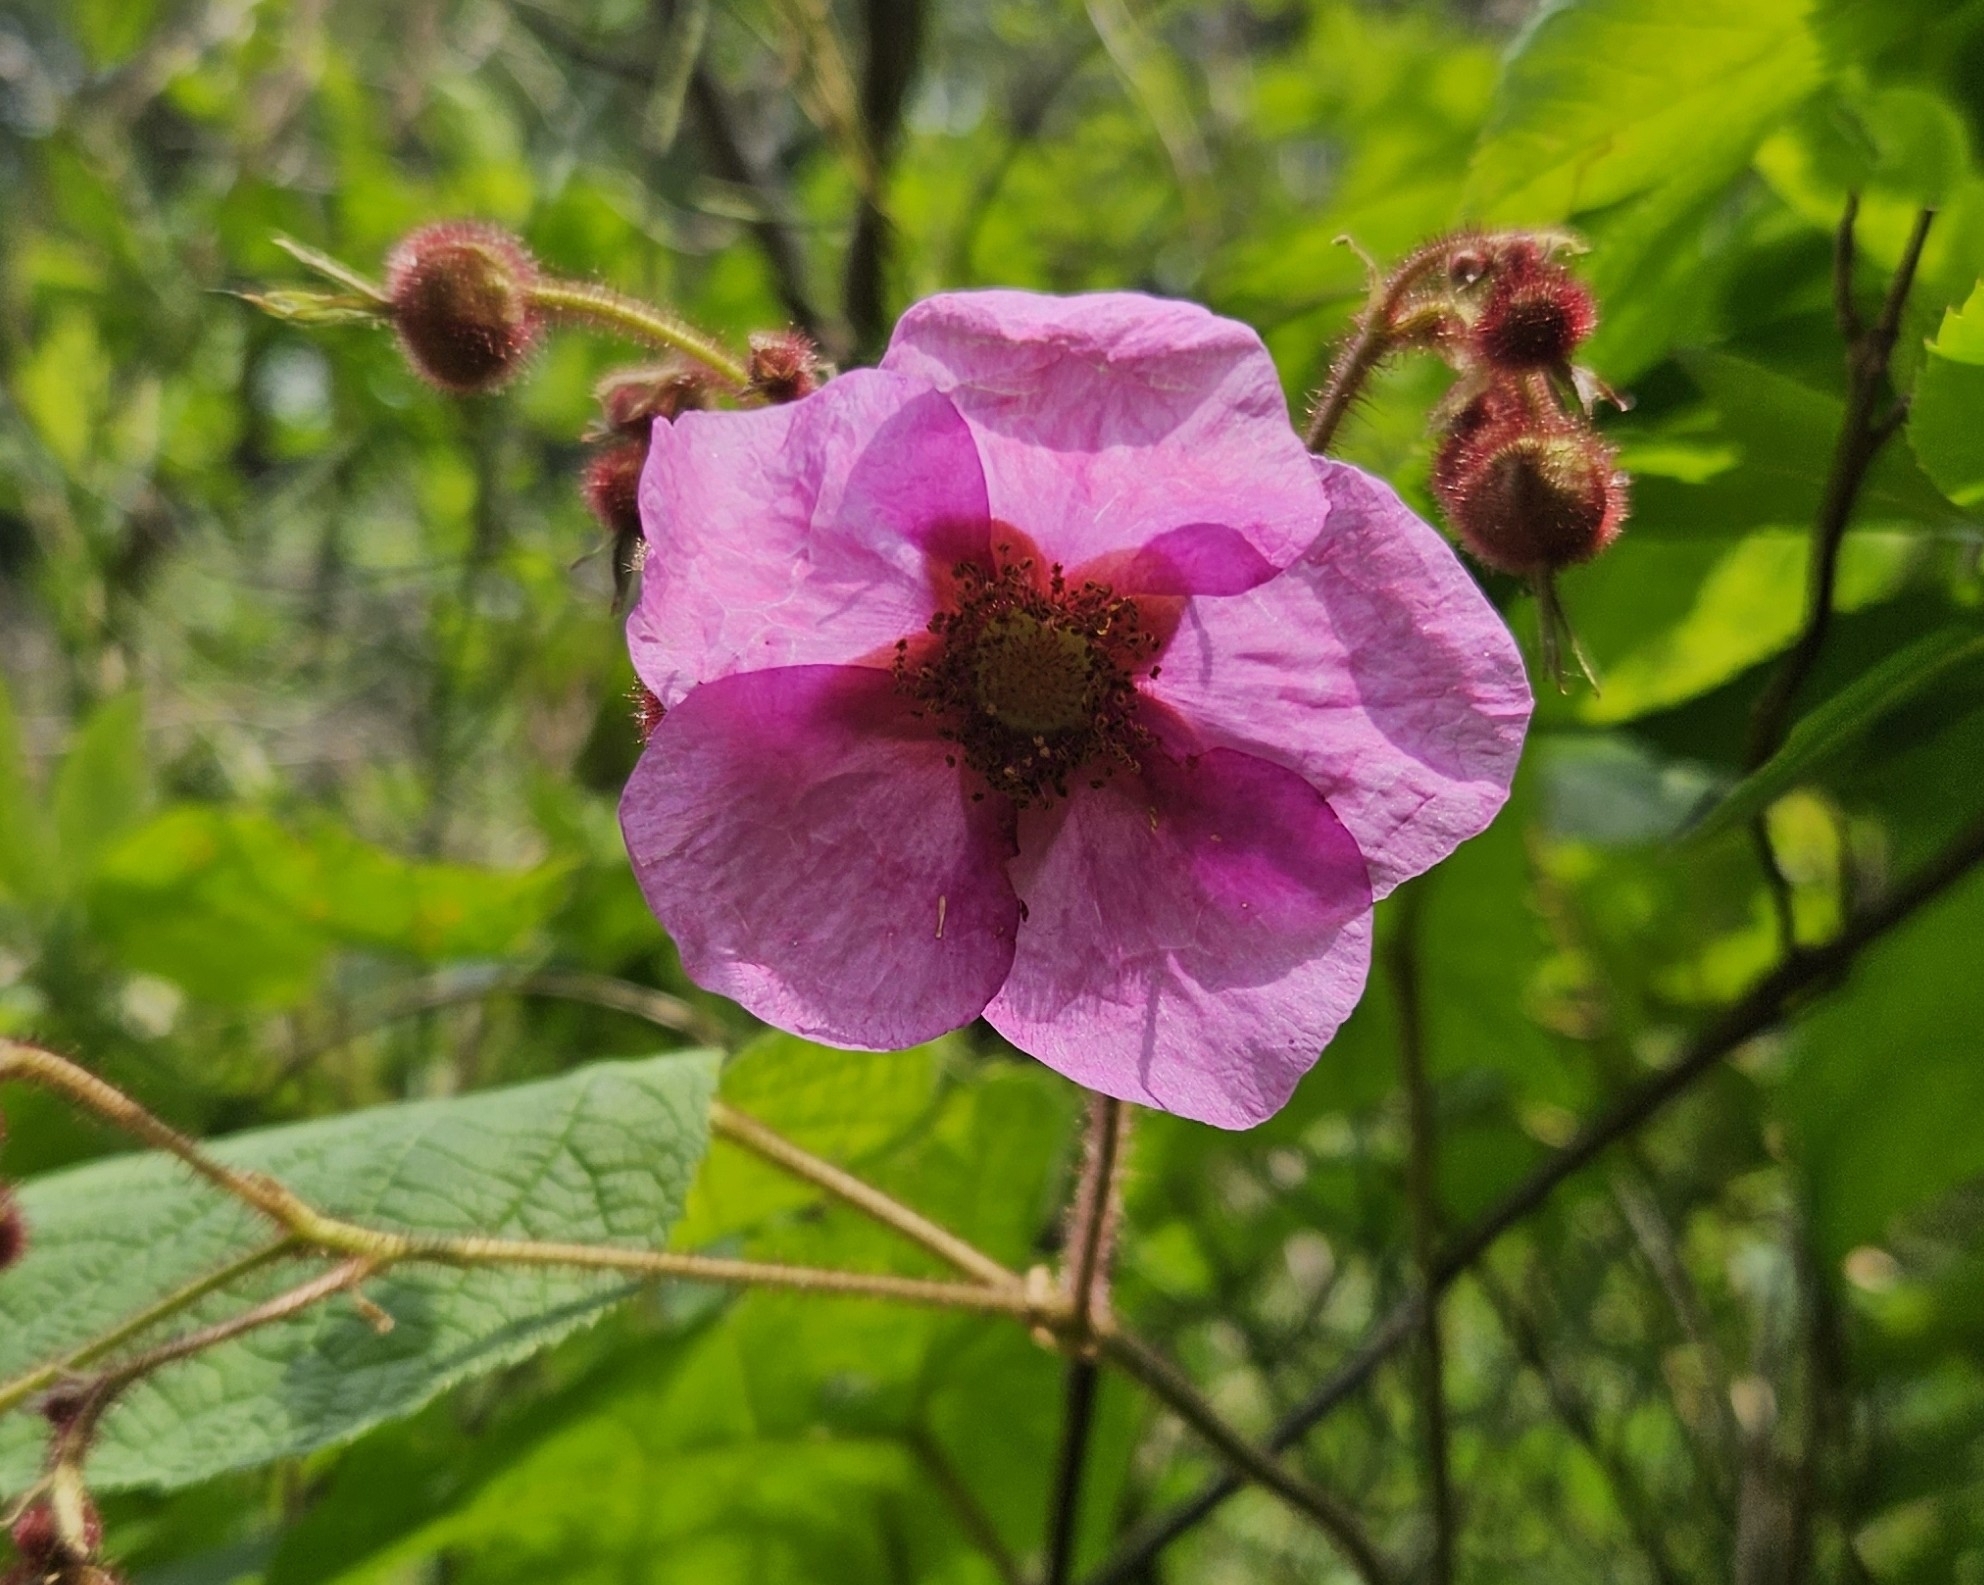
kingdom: Plantae
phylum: Tracheophyta
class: Magnoliopsida
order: Rosales
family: Rosaceae
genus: Rubus
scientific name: Rubus odoratus
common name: Purple-flowered raspberry
